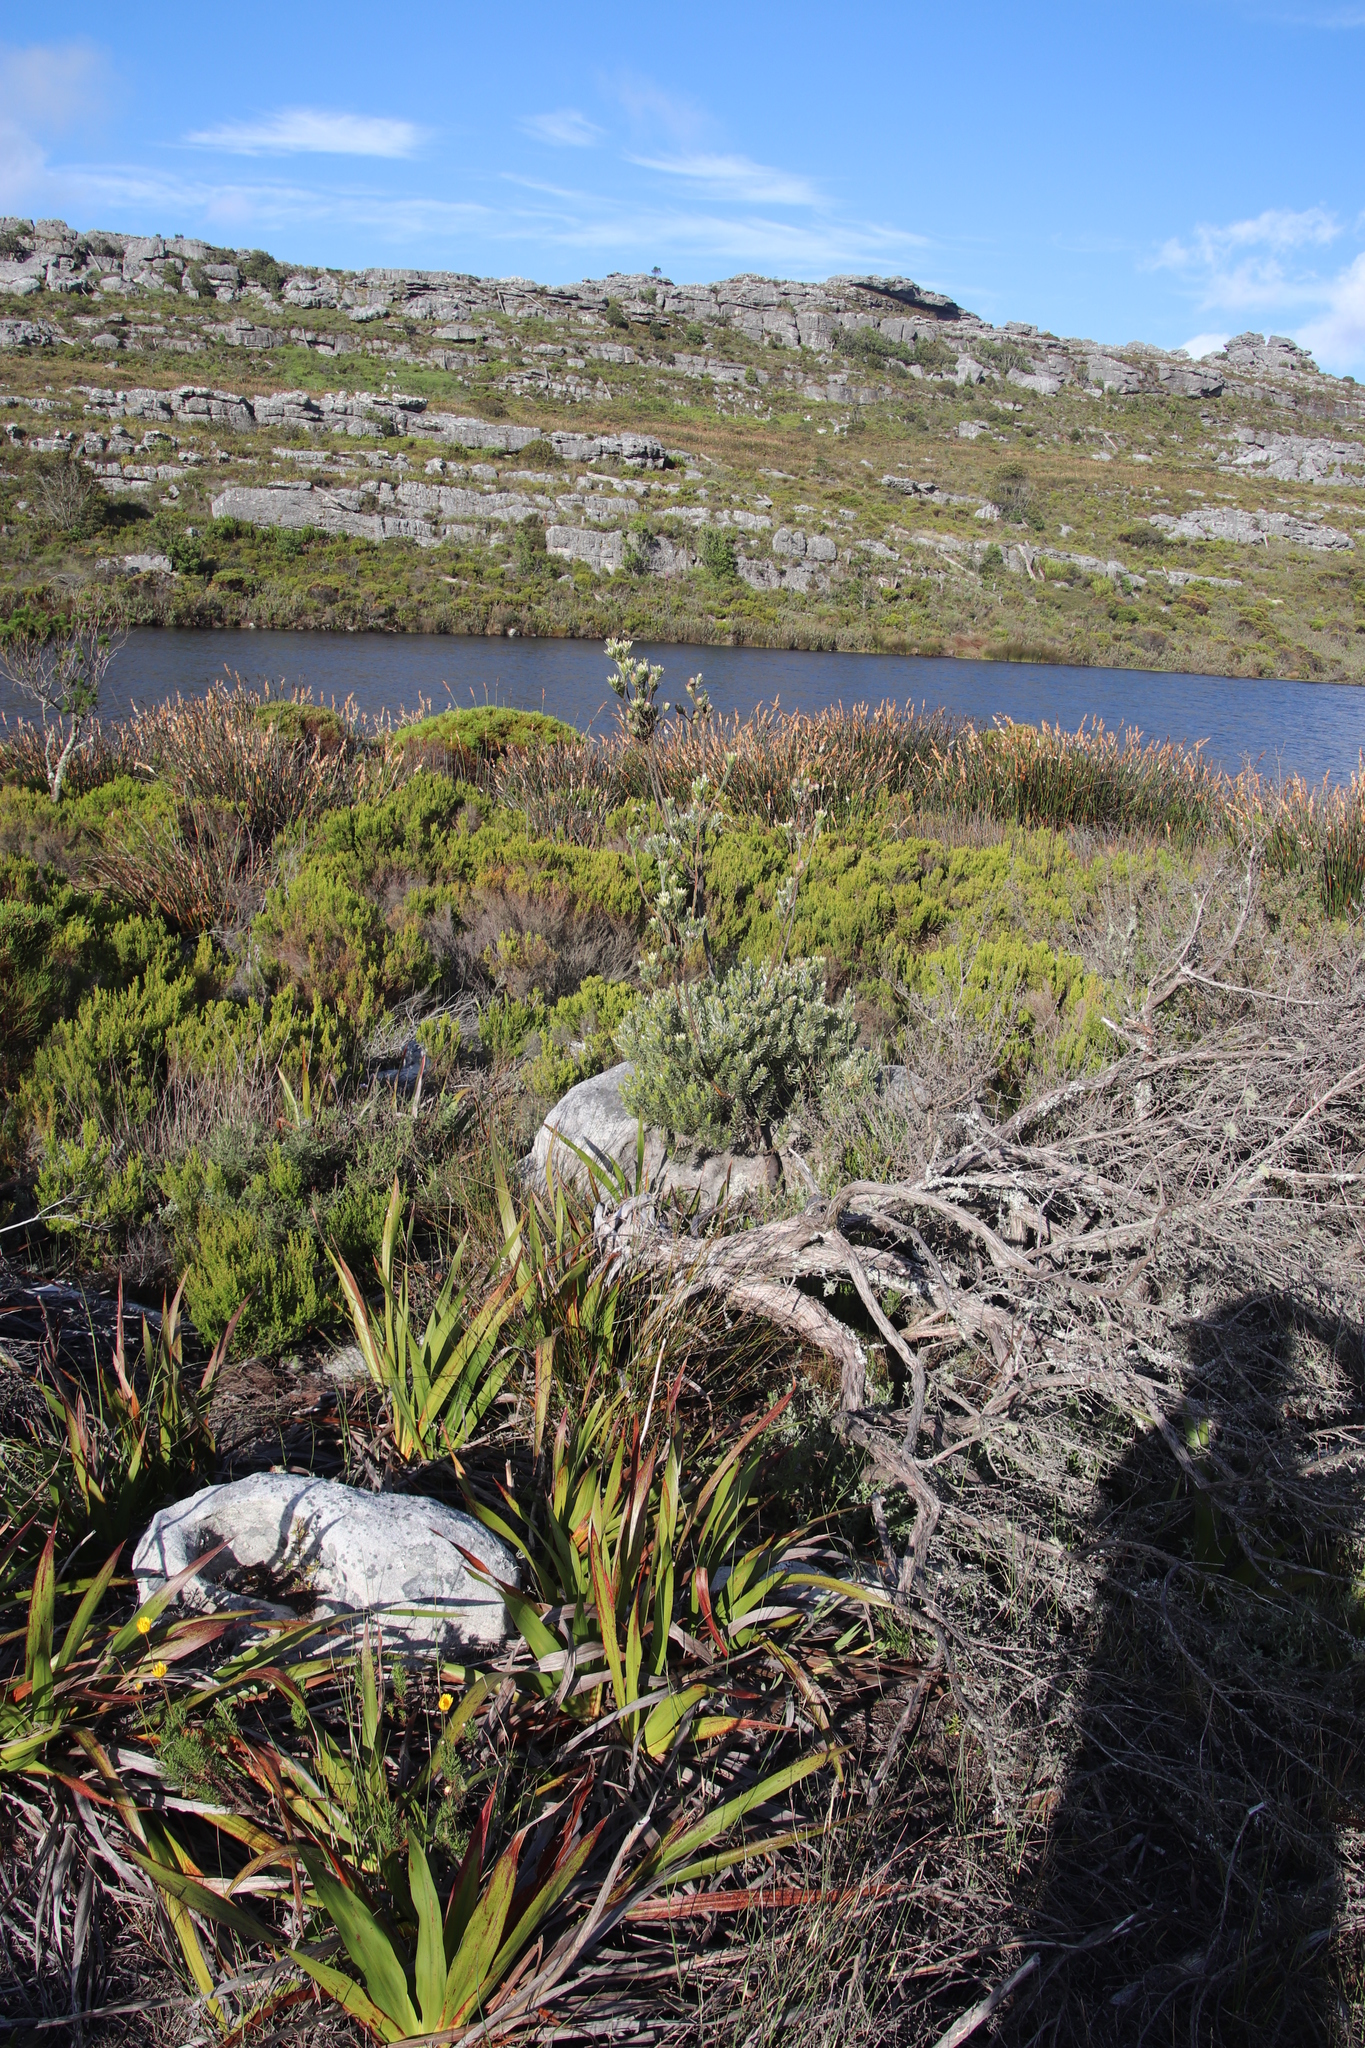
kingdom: Plantae
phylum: Tracheophyta
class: Magnoliopsida
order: Proteales
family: Proteaceae
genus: Leucadendron
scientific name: Leucadendron
